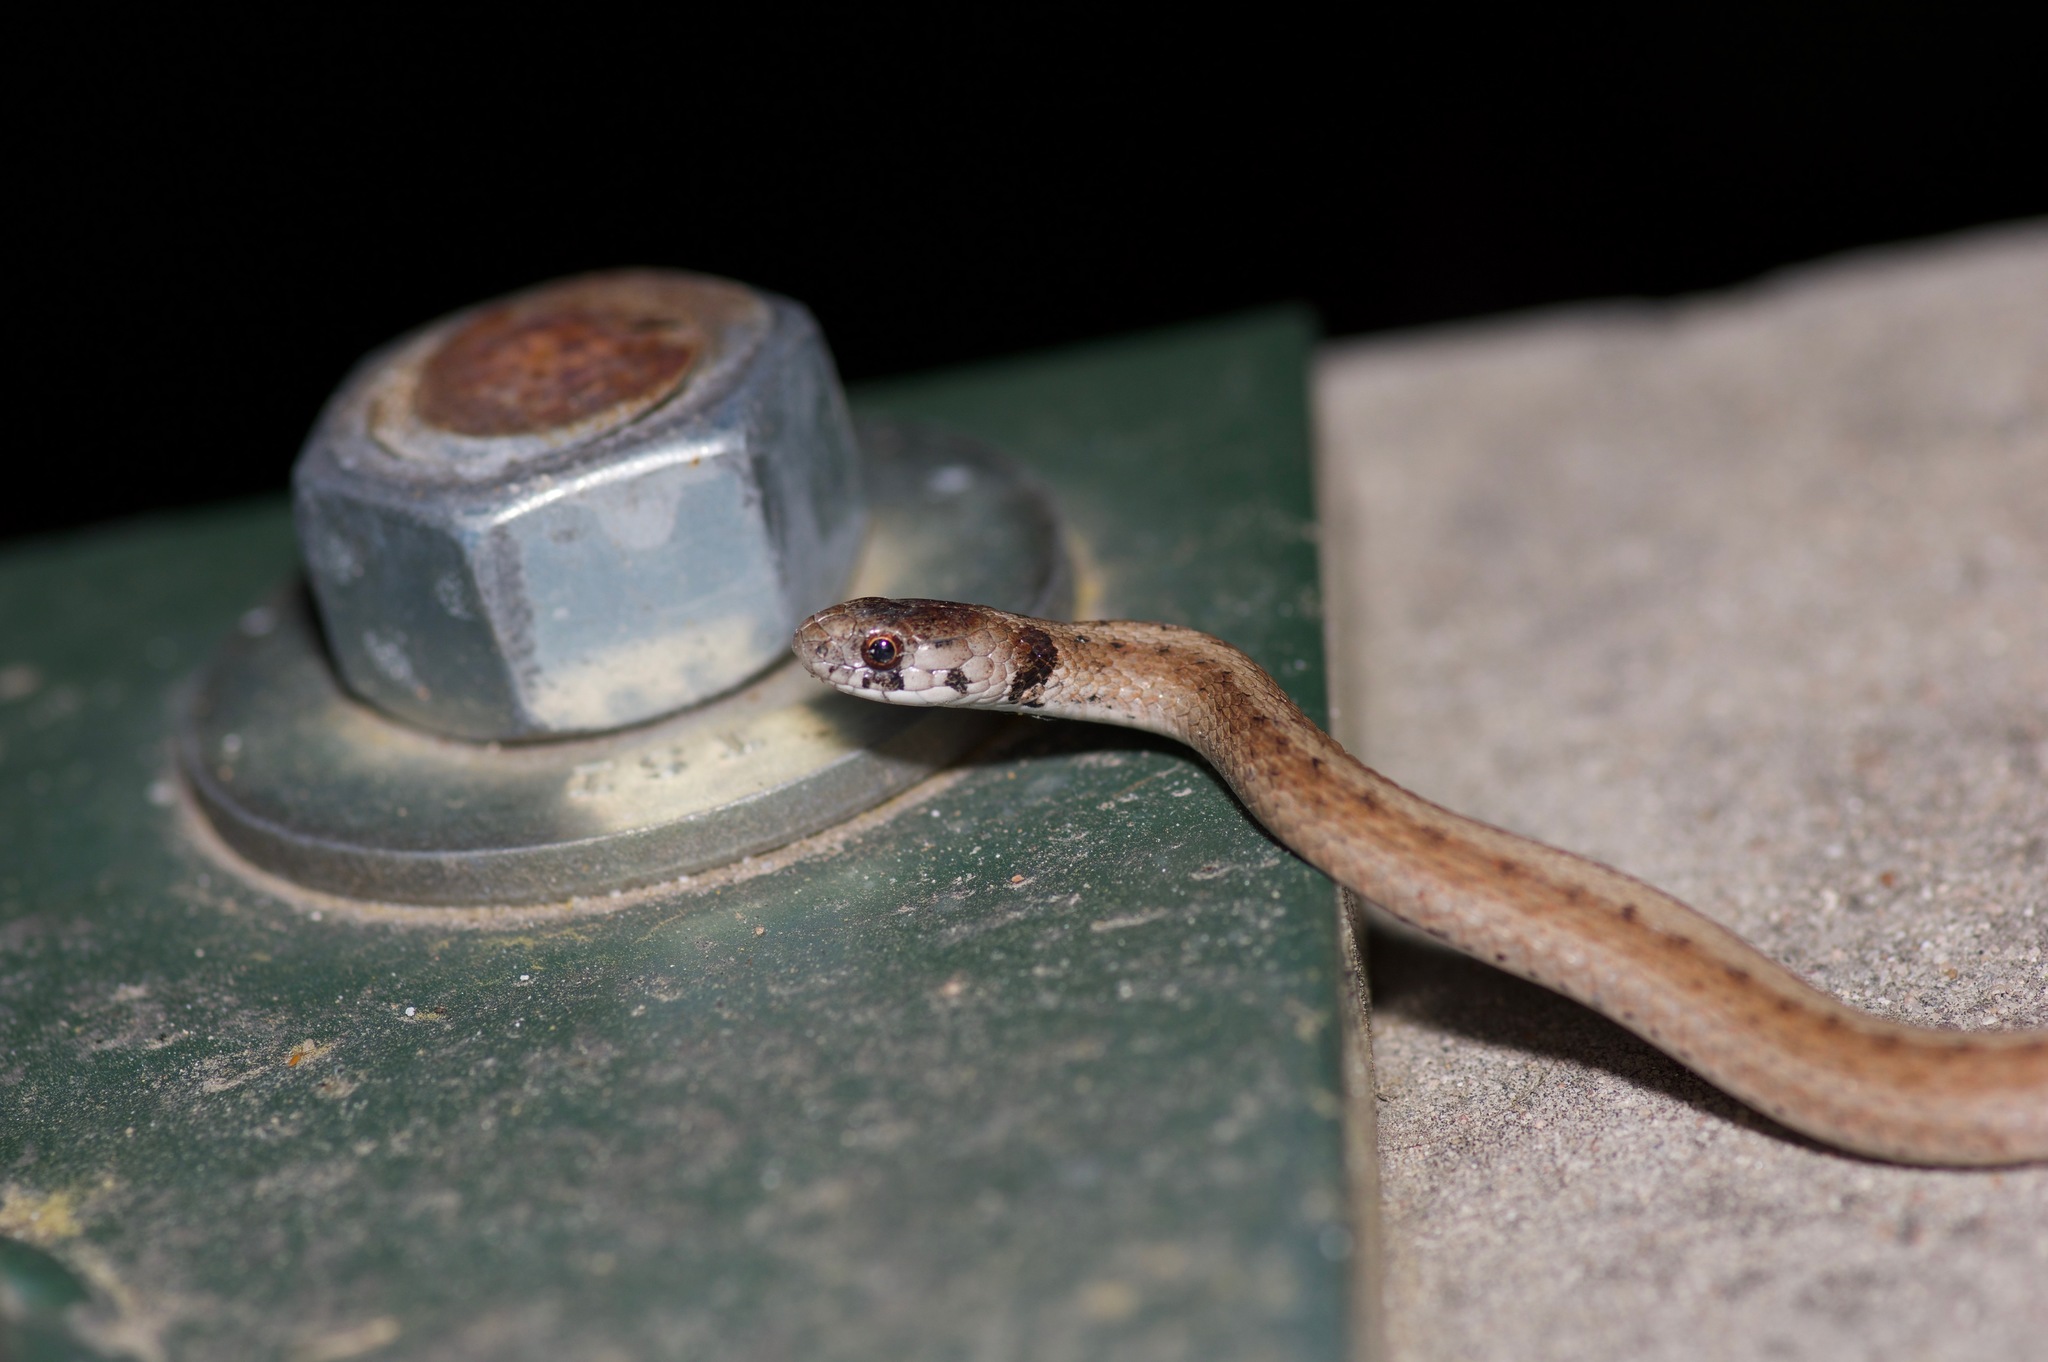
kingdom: Animalia
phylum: Chordata
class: Squamata
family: Colubridae
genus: Storeria
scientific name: Storeria dekayi
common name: (dekay’s) brown snake
